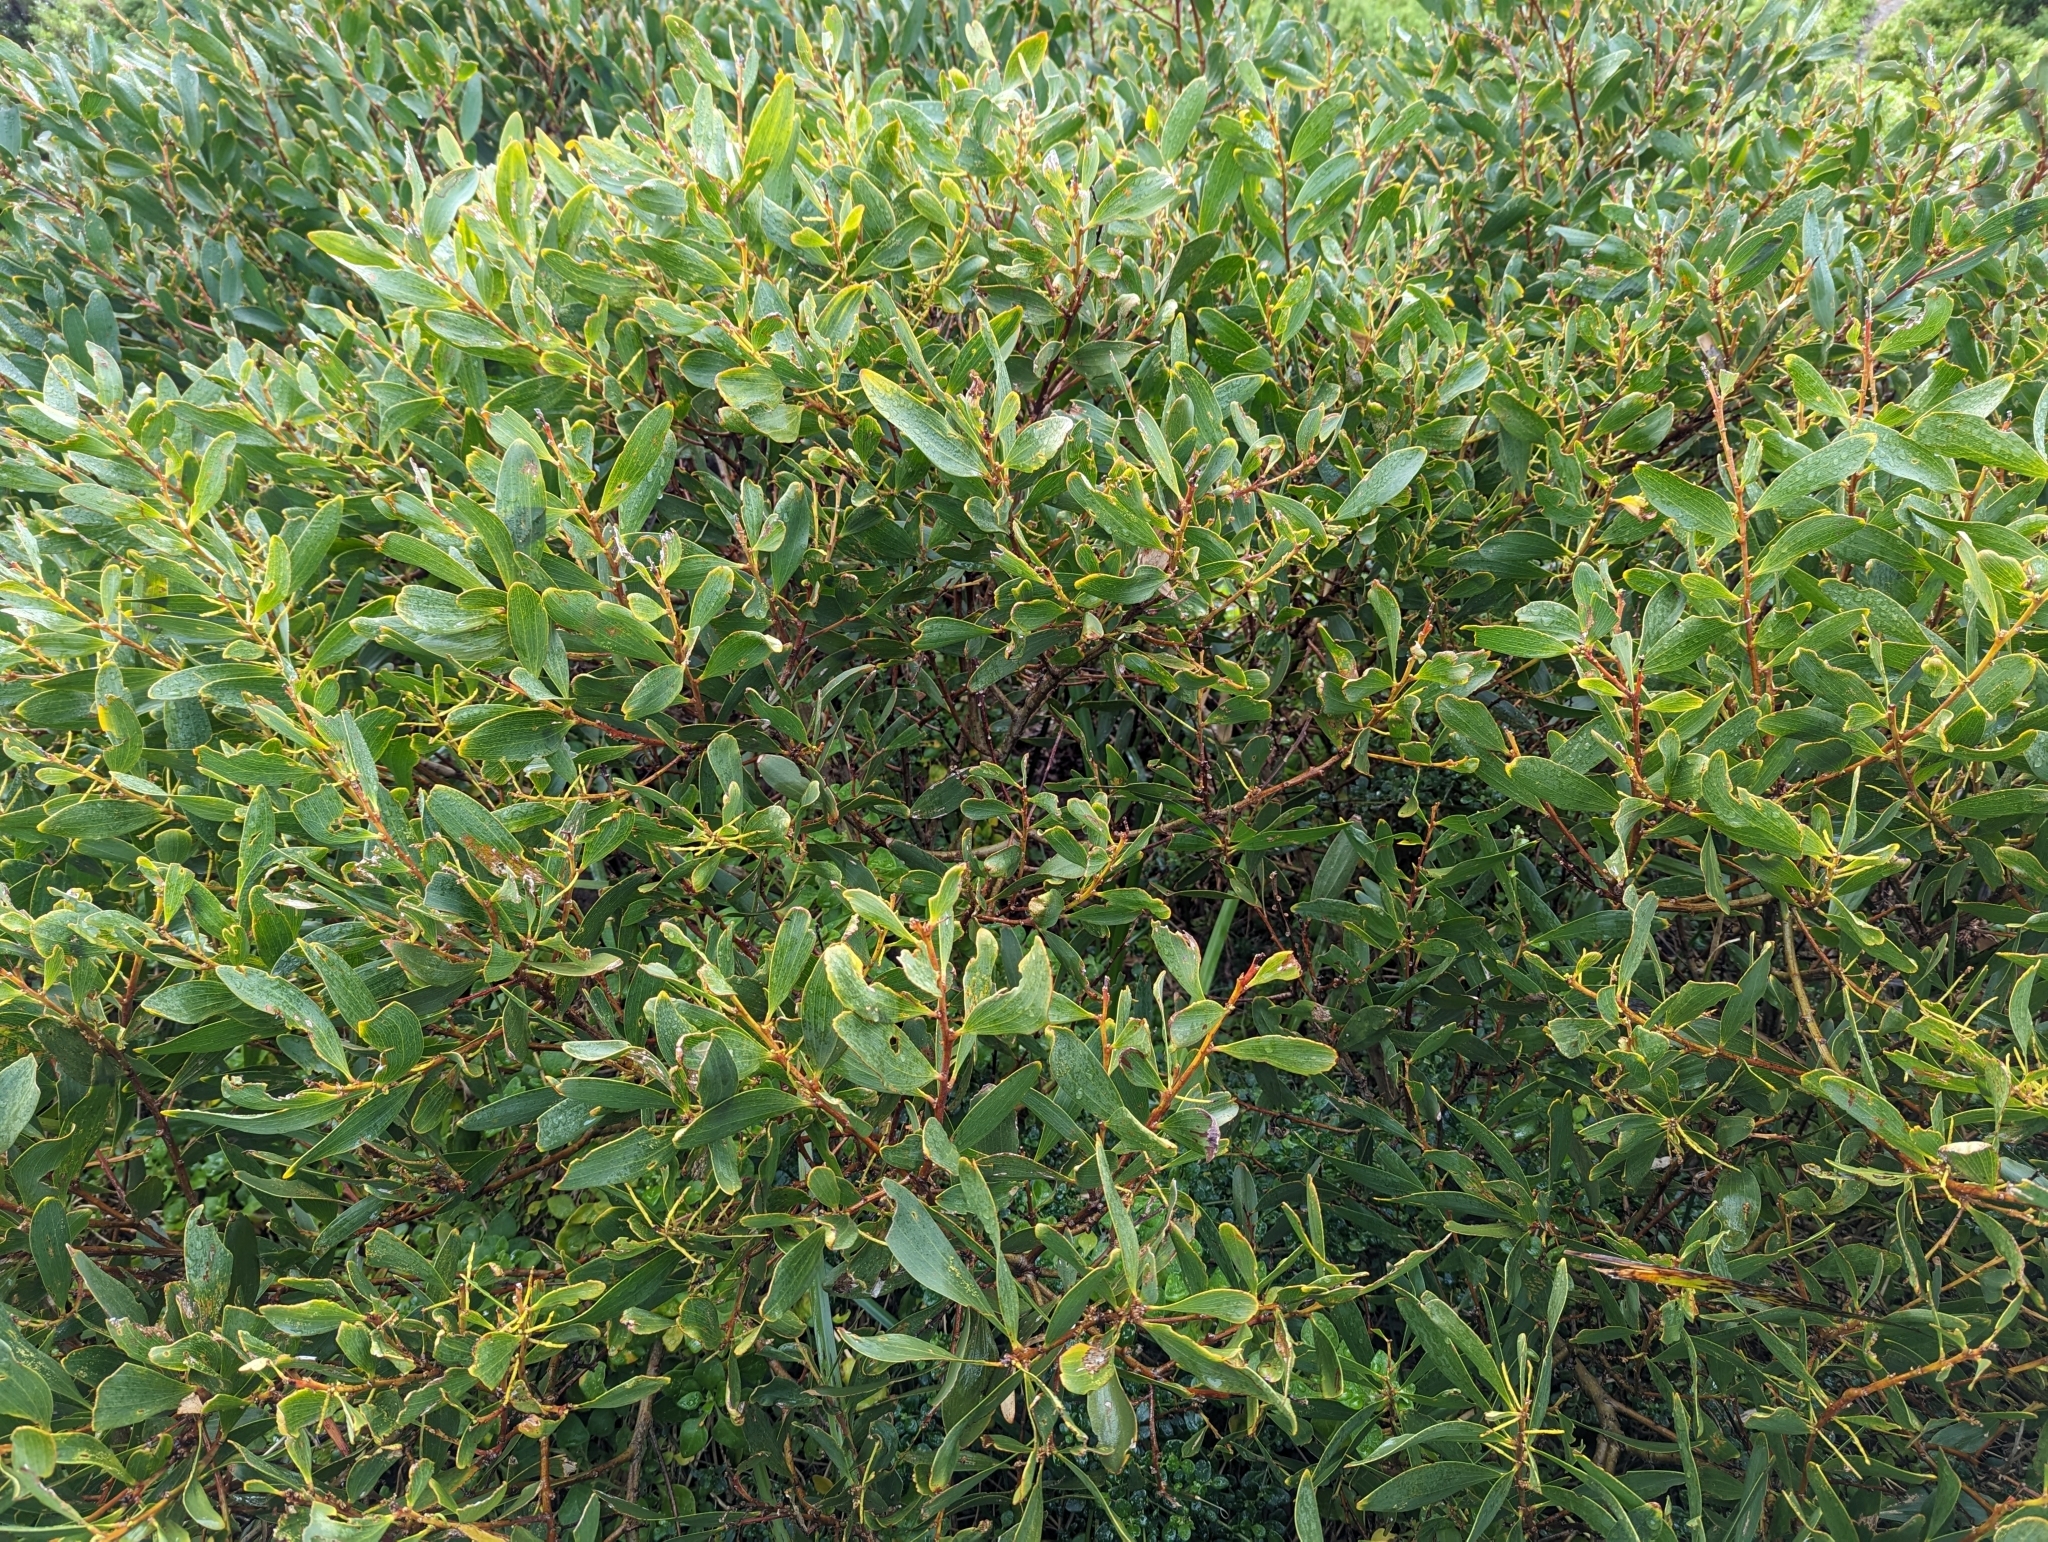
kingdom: Plantae
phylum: Tracheophyta
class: Magnoliopsida
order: Fabales
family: Fabaceae
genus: Acacia
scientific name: Acacia longifolia
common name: Sydney golden wattle
